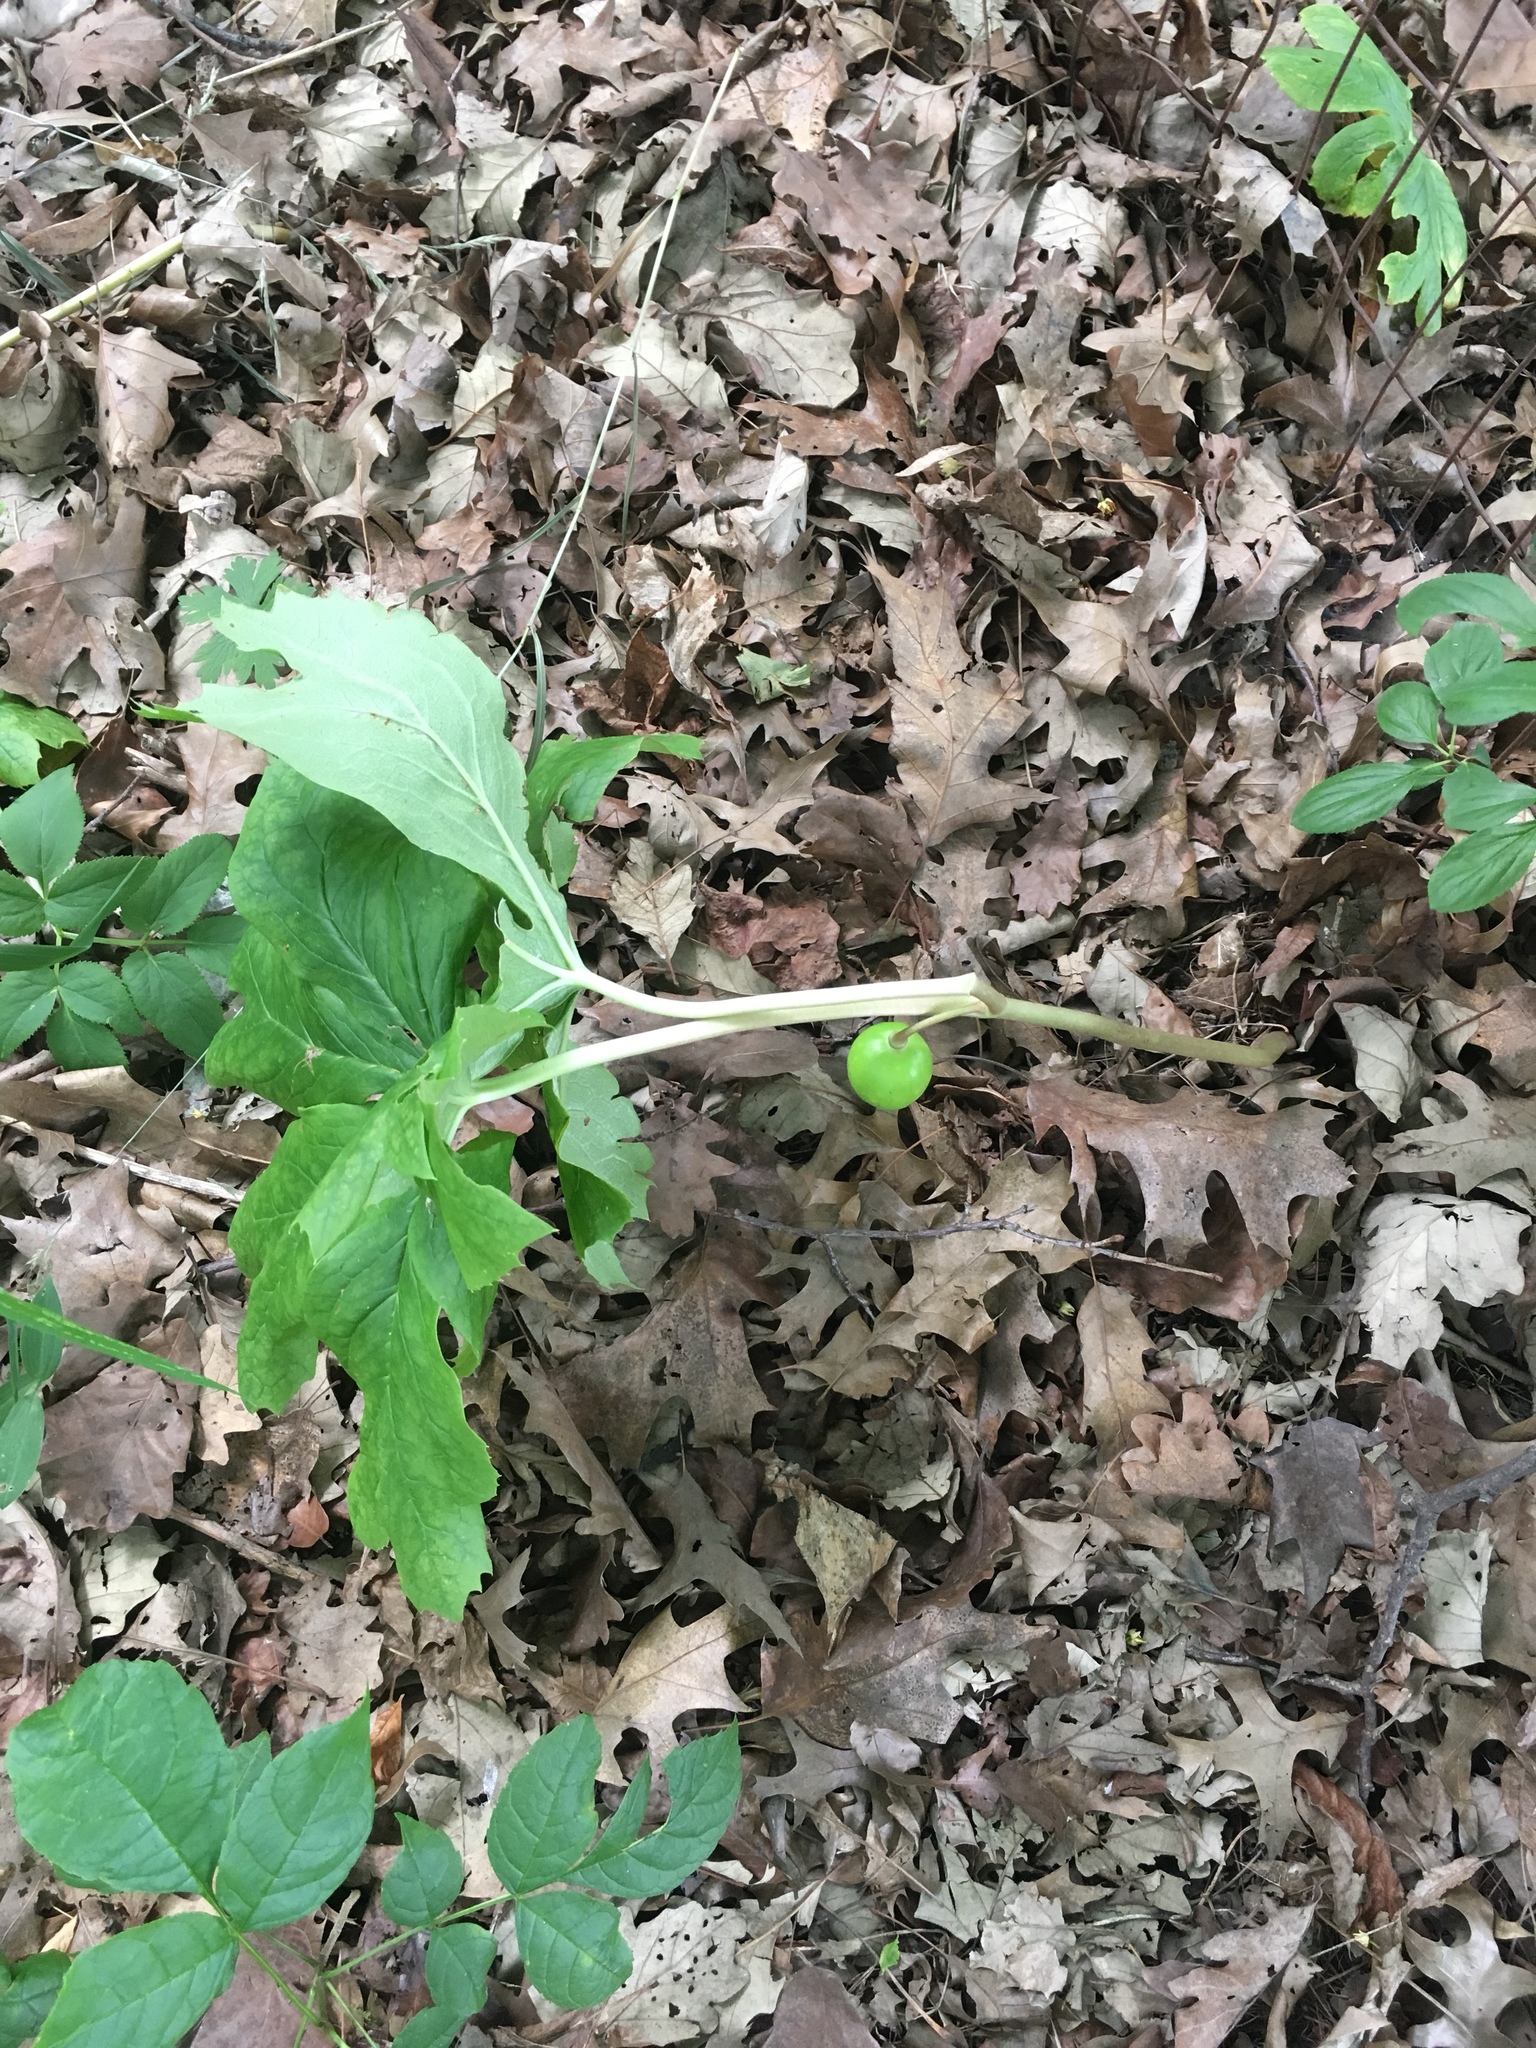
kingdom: Plantae
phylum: Tracheophyta
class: Magnoliopsida
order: Ranunculales
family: Berberidaceae
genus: Podophyllum
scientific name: Podophyllum peltatum
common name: Wild mandrake
